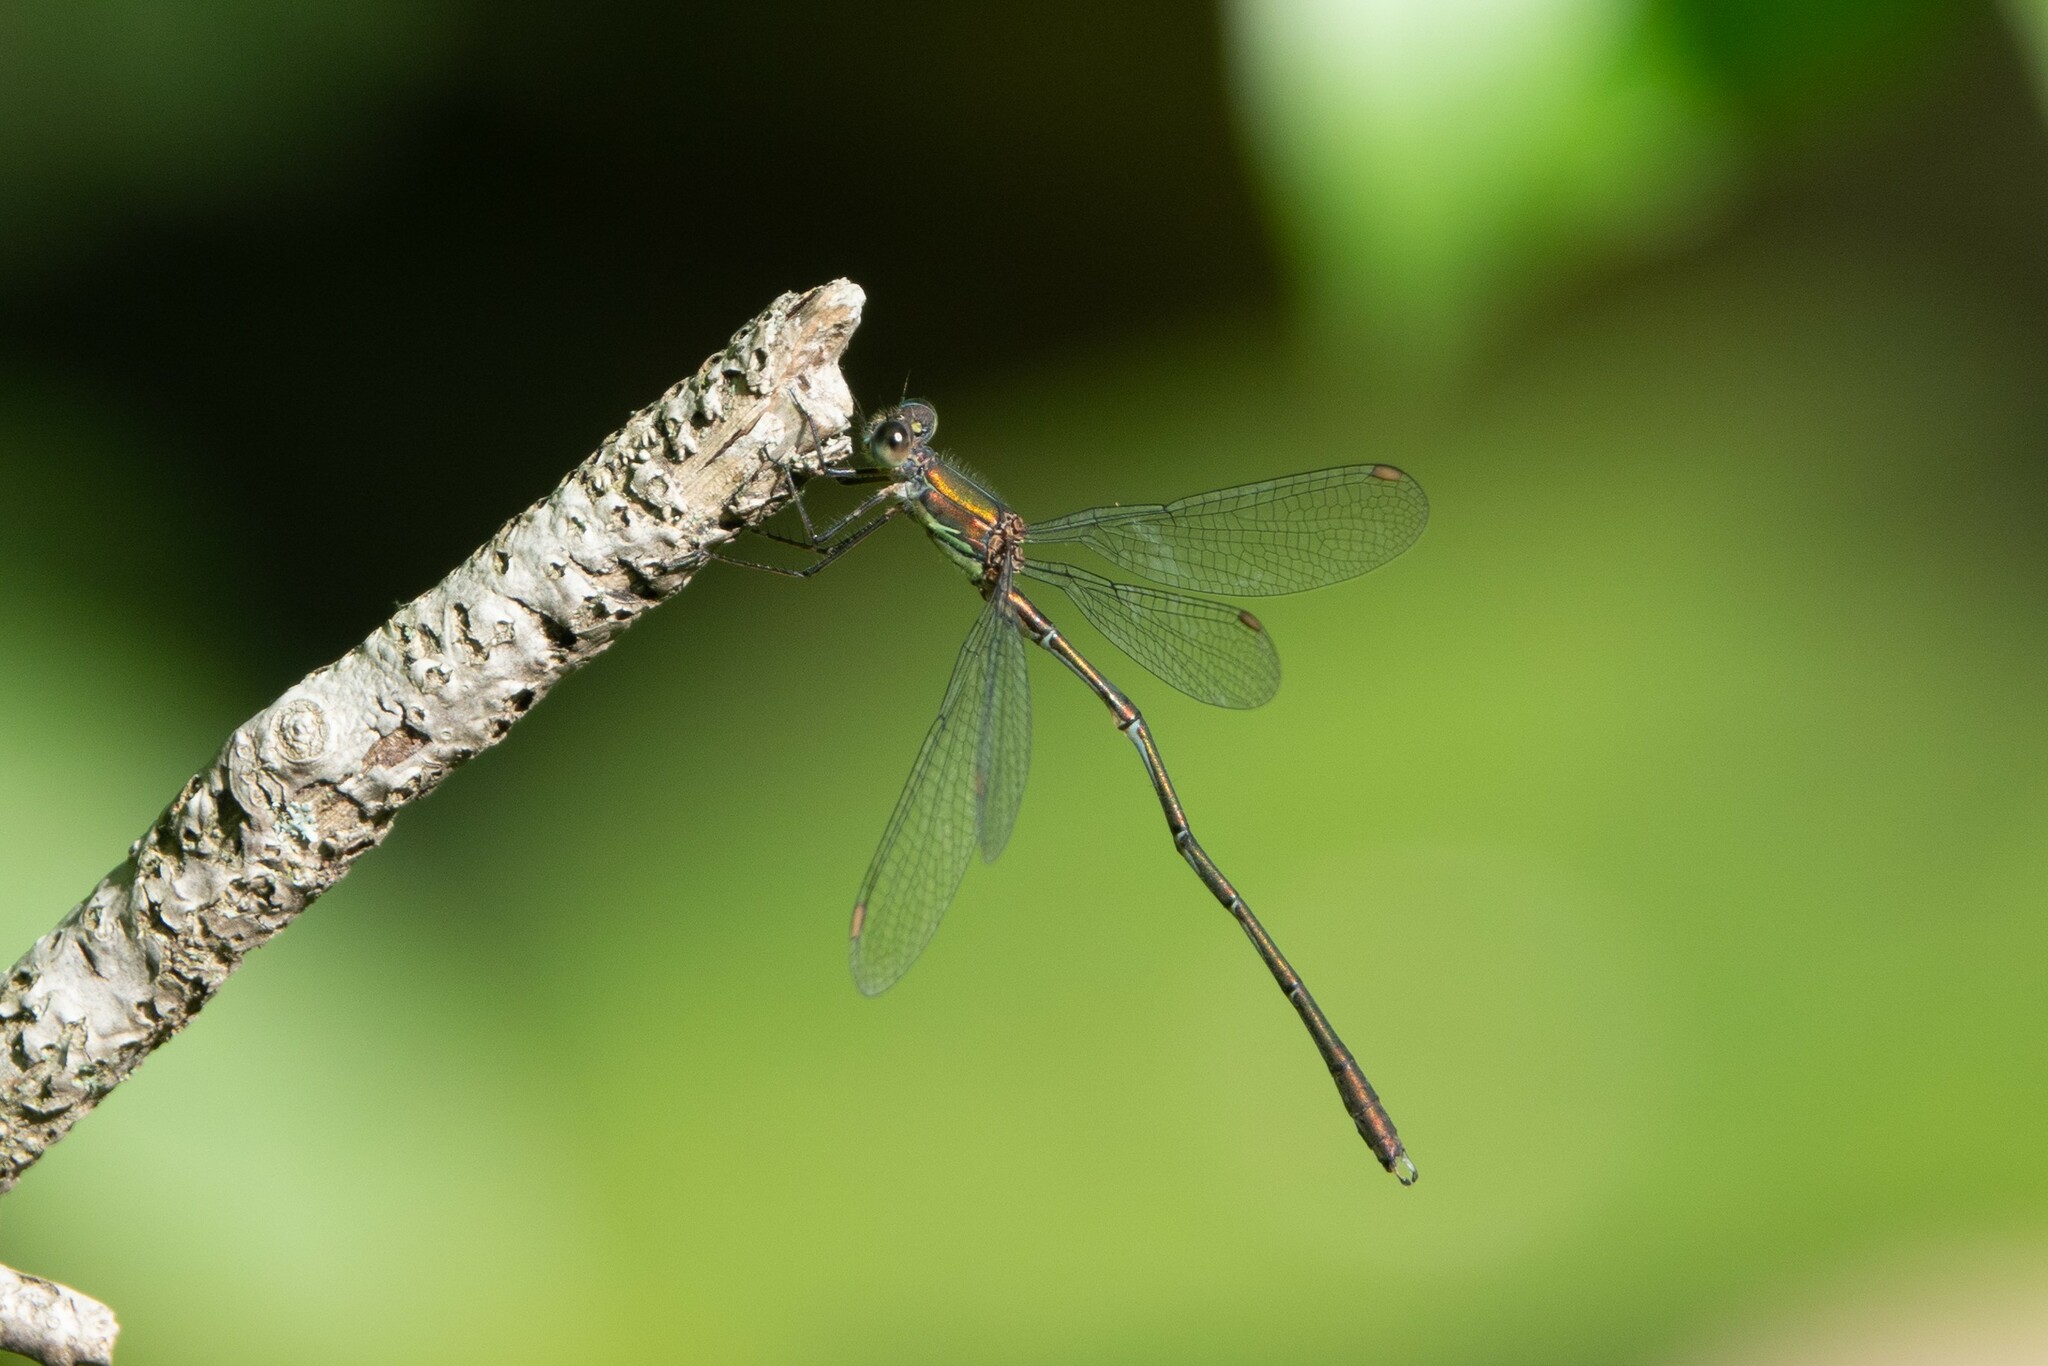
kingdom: Animalia
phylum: Arthropoda
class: Insecta
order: Odonata
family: Lestidae
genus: Chalcolestes
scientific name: Chalcolestes viridis
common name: Green emerald damselfly
